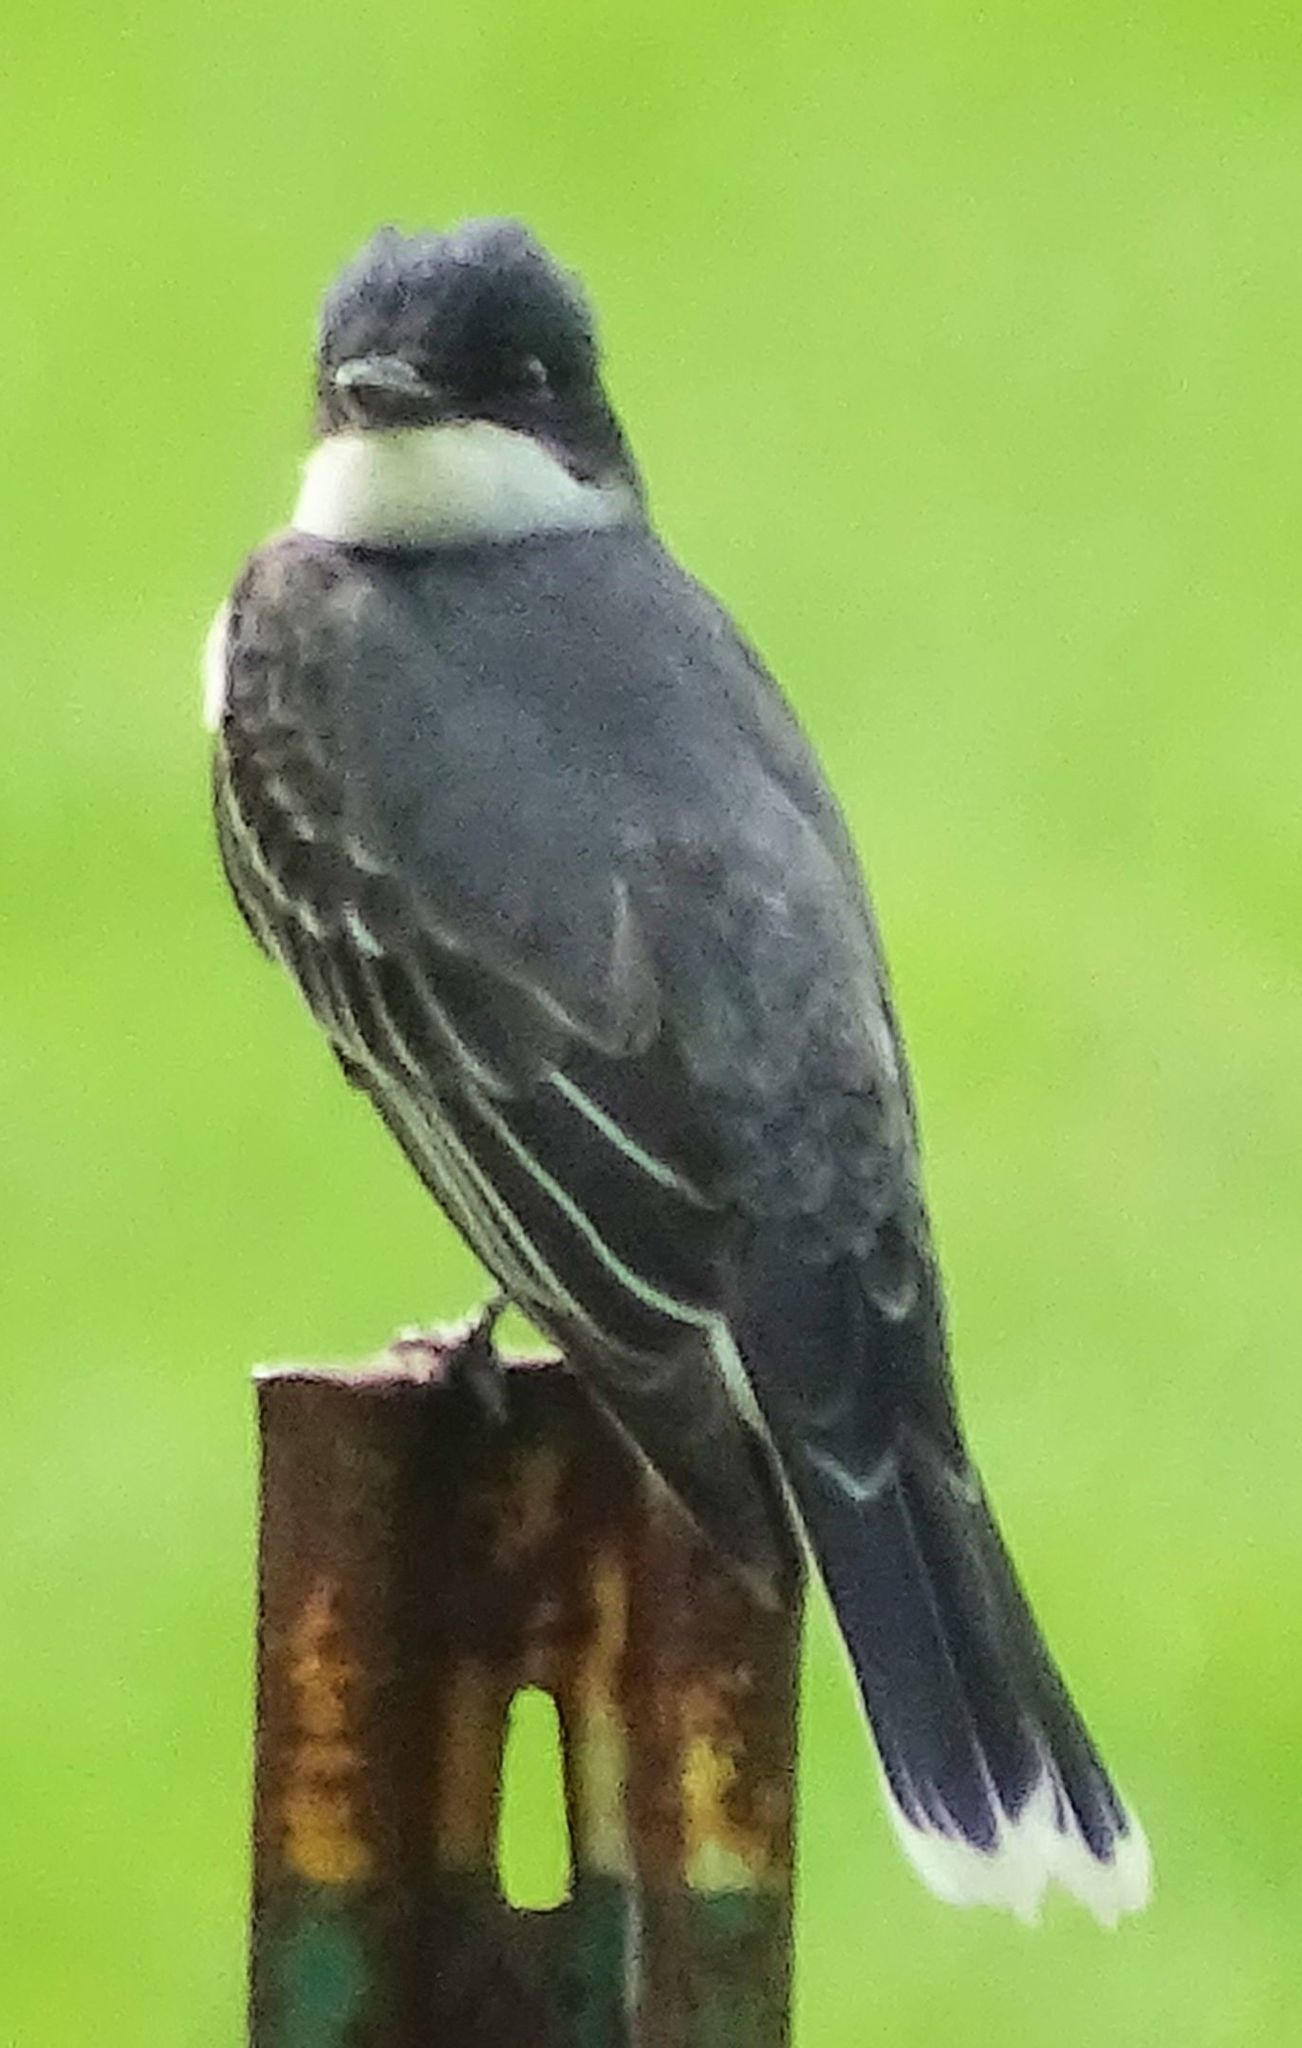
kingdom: Animalia
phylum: Chordata
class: Aves
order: Passeriformes
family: Tyrannidae
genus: Tyrannus
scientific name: Tyrannus tyrannus
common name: Eastern kingbird
